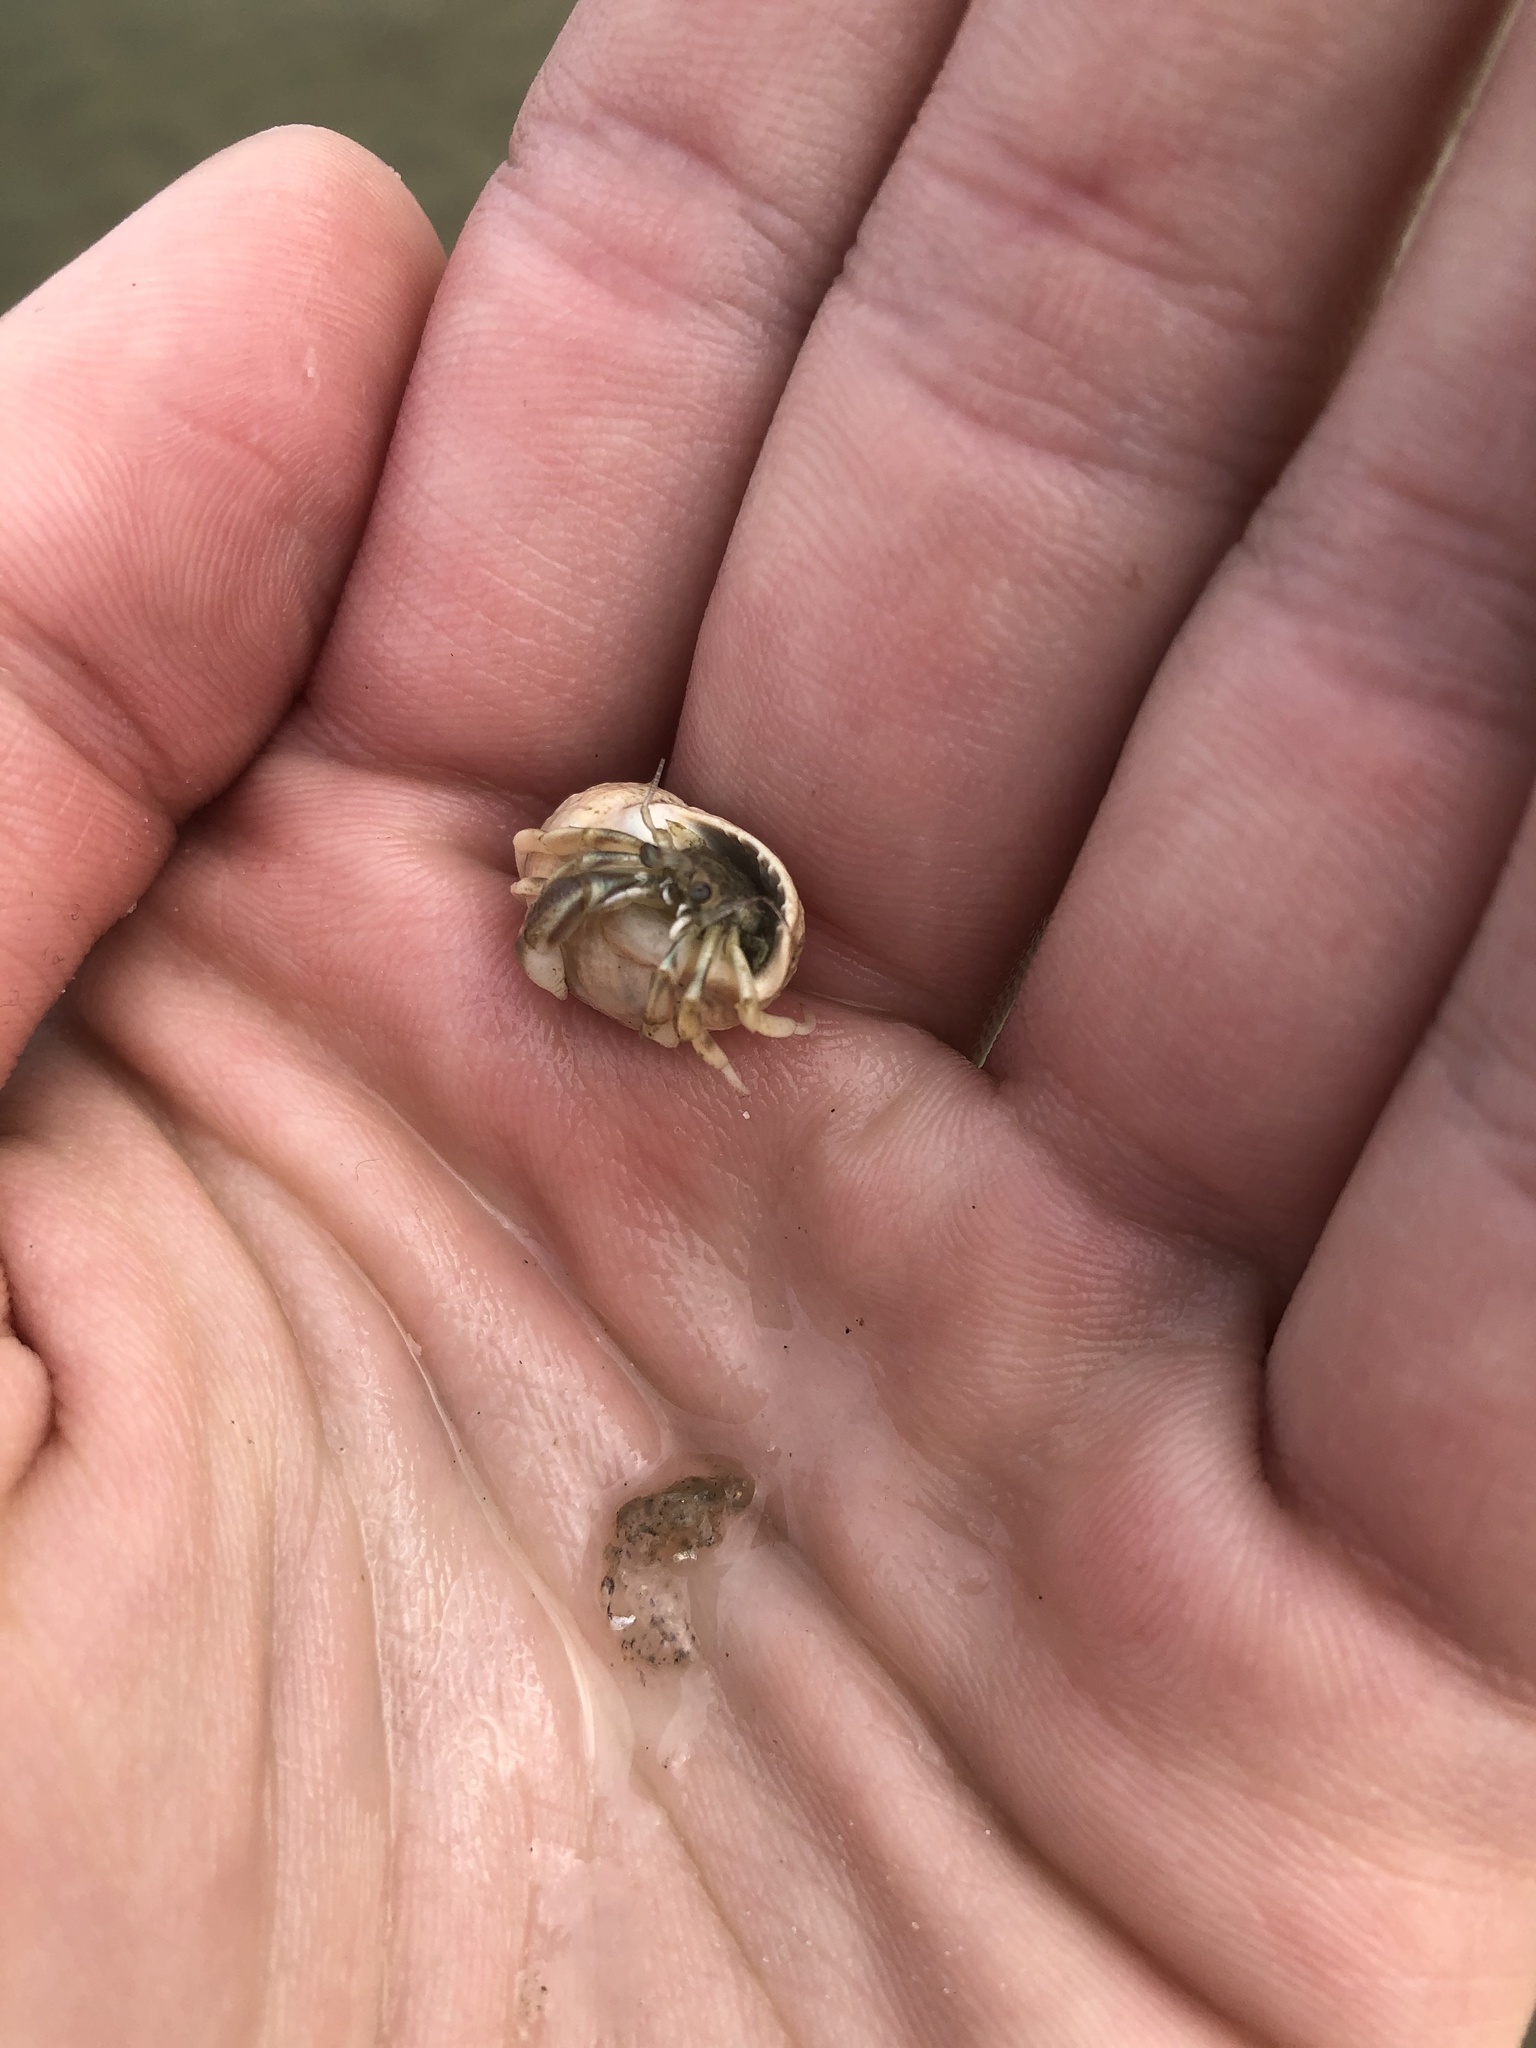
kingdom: Animalia
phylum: Arthropoda
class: Malacostraca
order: Decapoda
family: Paguridae
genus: Pagurus
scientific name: Pagurus longicarpus
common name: Long-armed hermit crab
